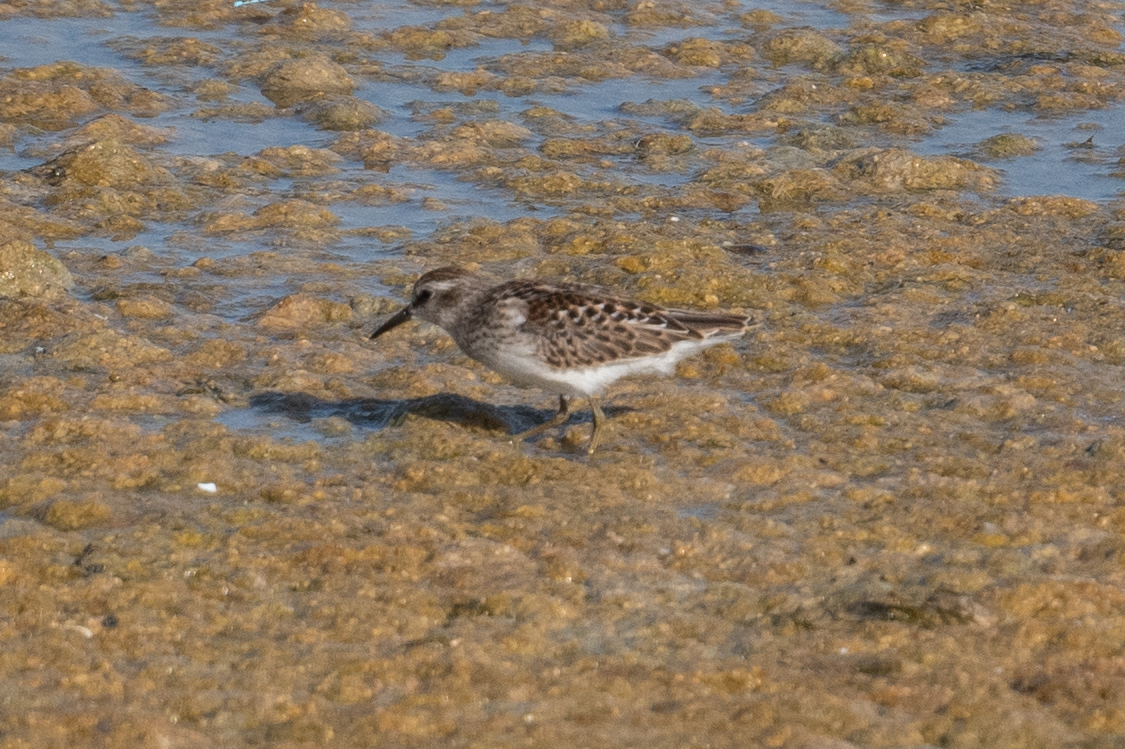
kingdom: Animalia
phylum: Chordata
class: Aves
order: Charadriiformes
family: Scolopacidae
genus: Calidris
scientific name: Calidris minutilla
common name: Least sandpiper
